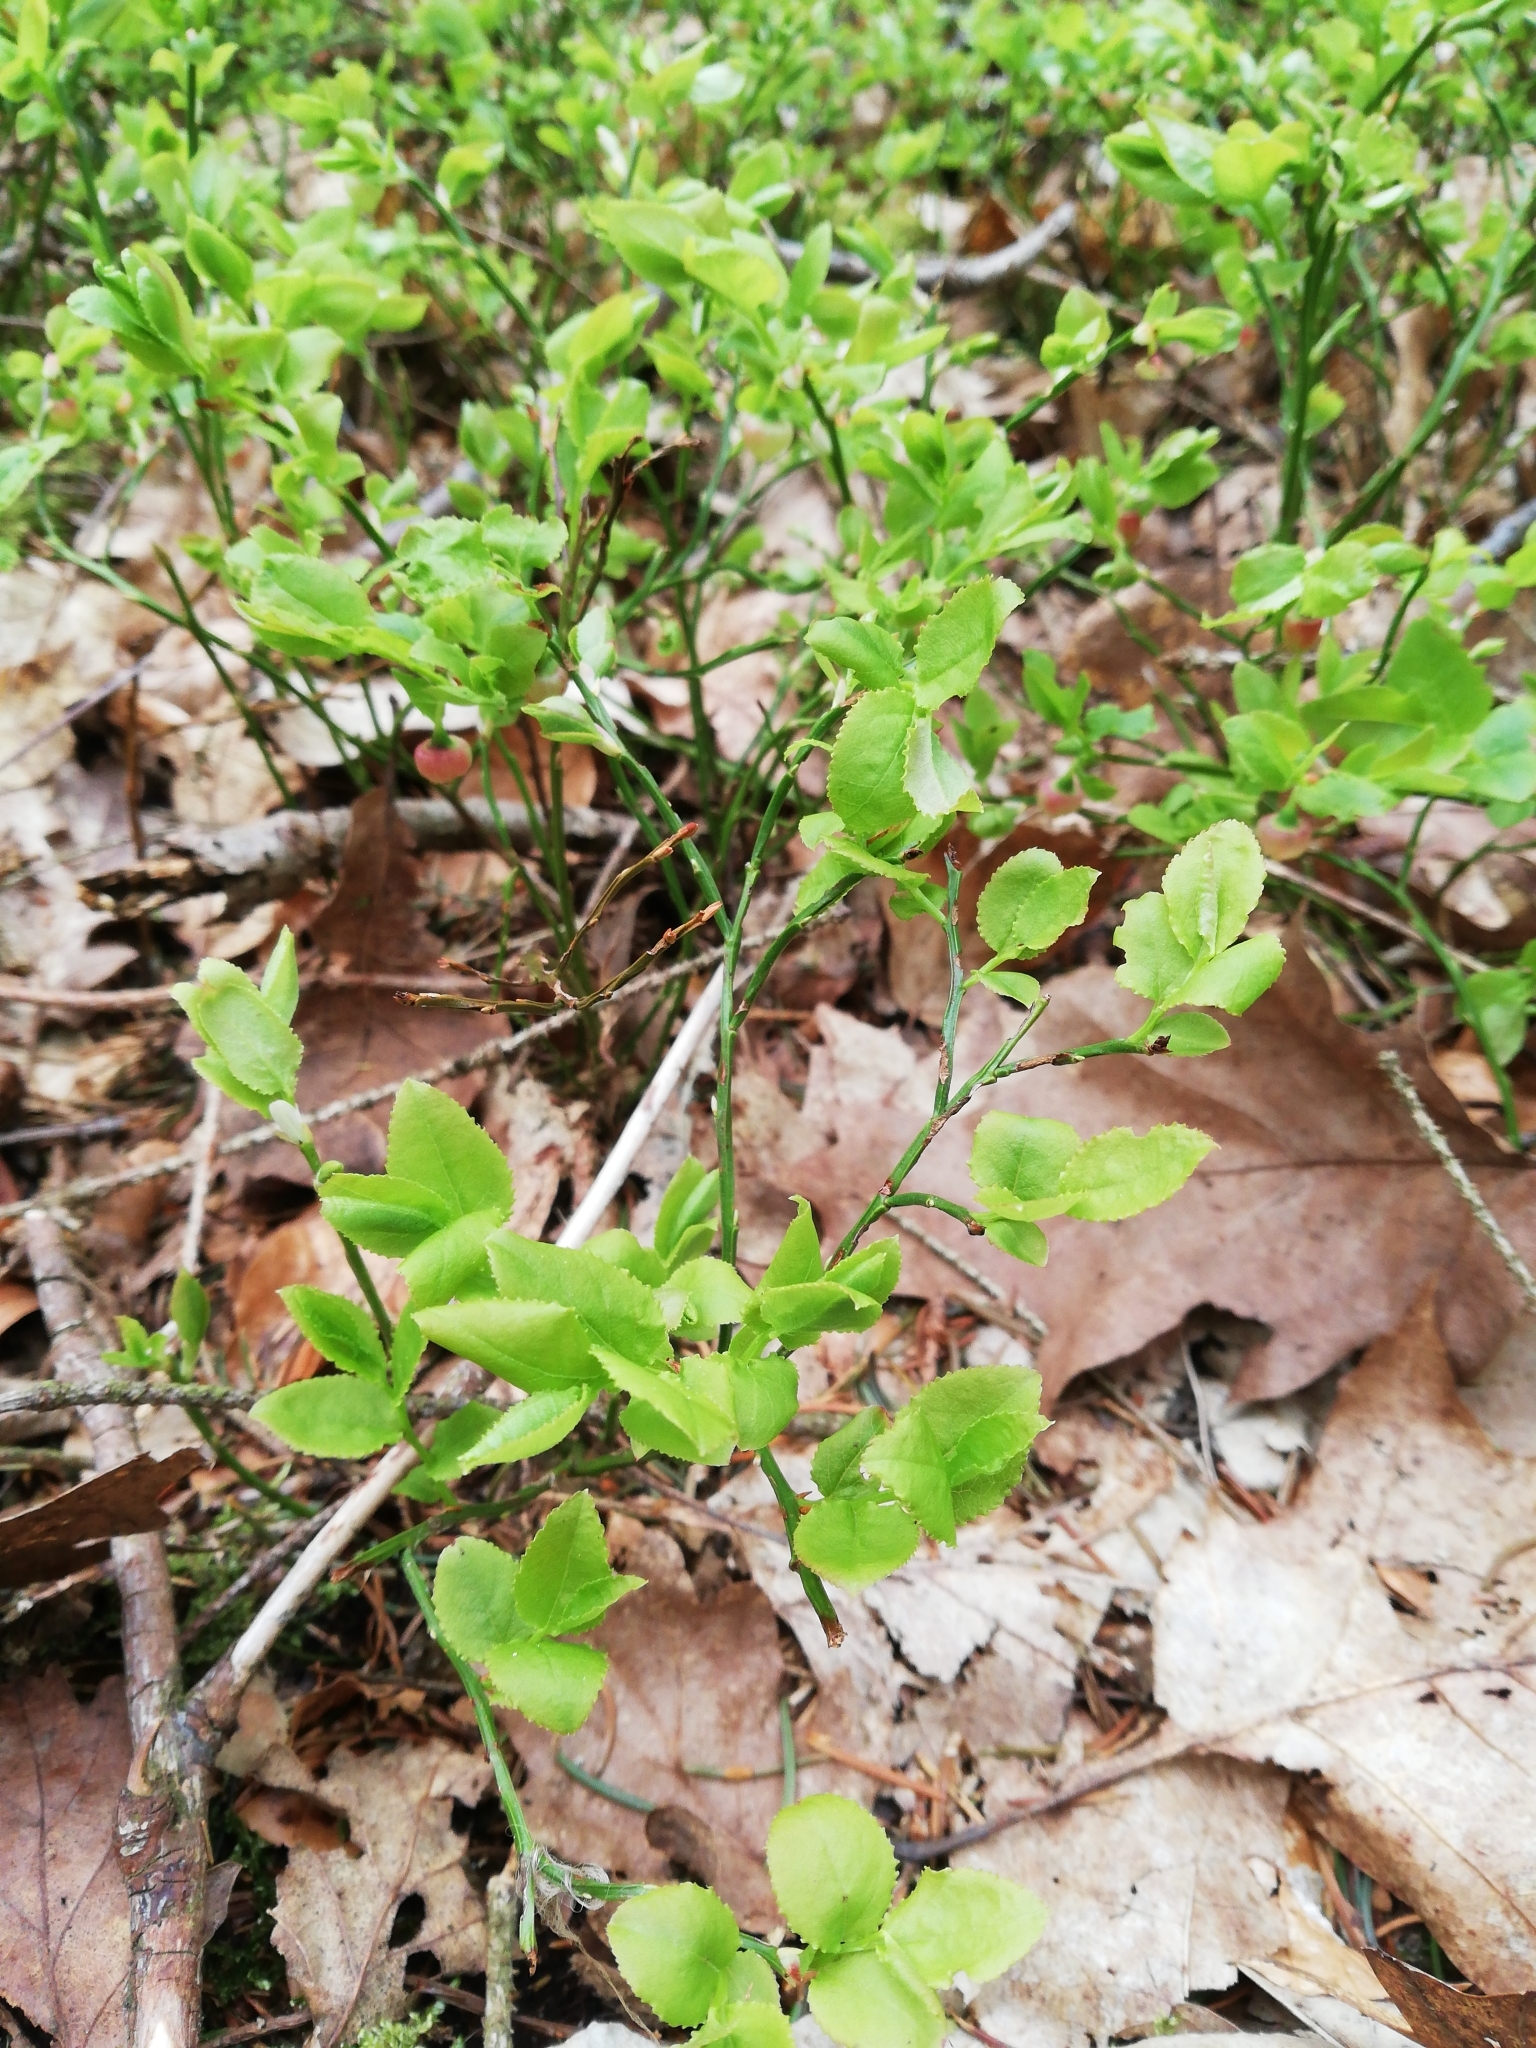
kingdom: Plantae
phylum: Tracheophyta
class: Magnoliopsida
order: Ericales
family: Ericaceae
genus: Vaccinium
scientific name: Vaccinium myrtillus
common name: Bilberry
